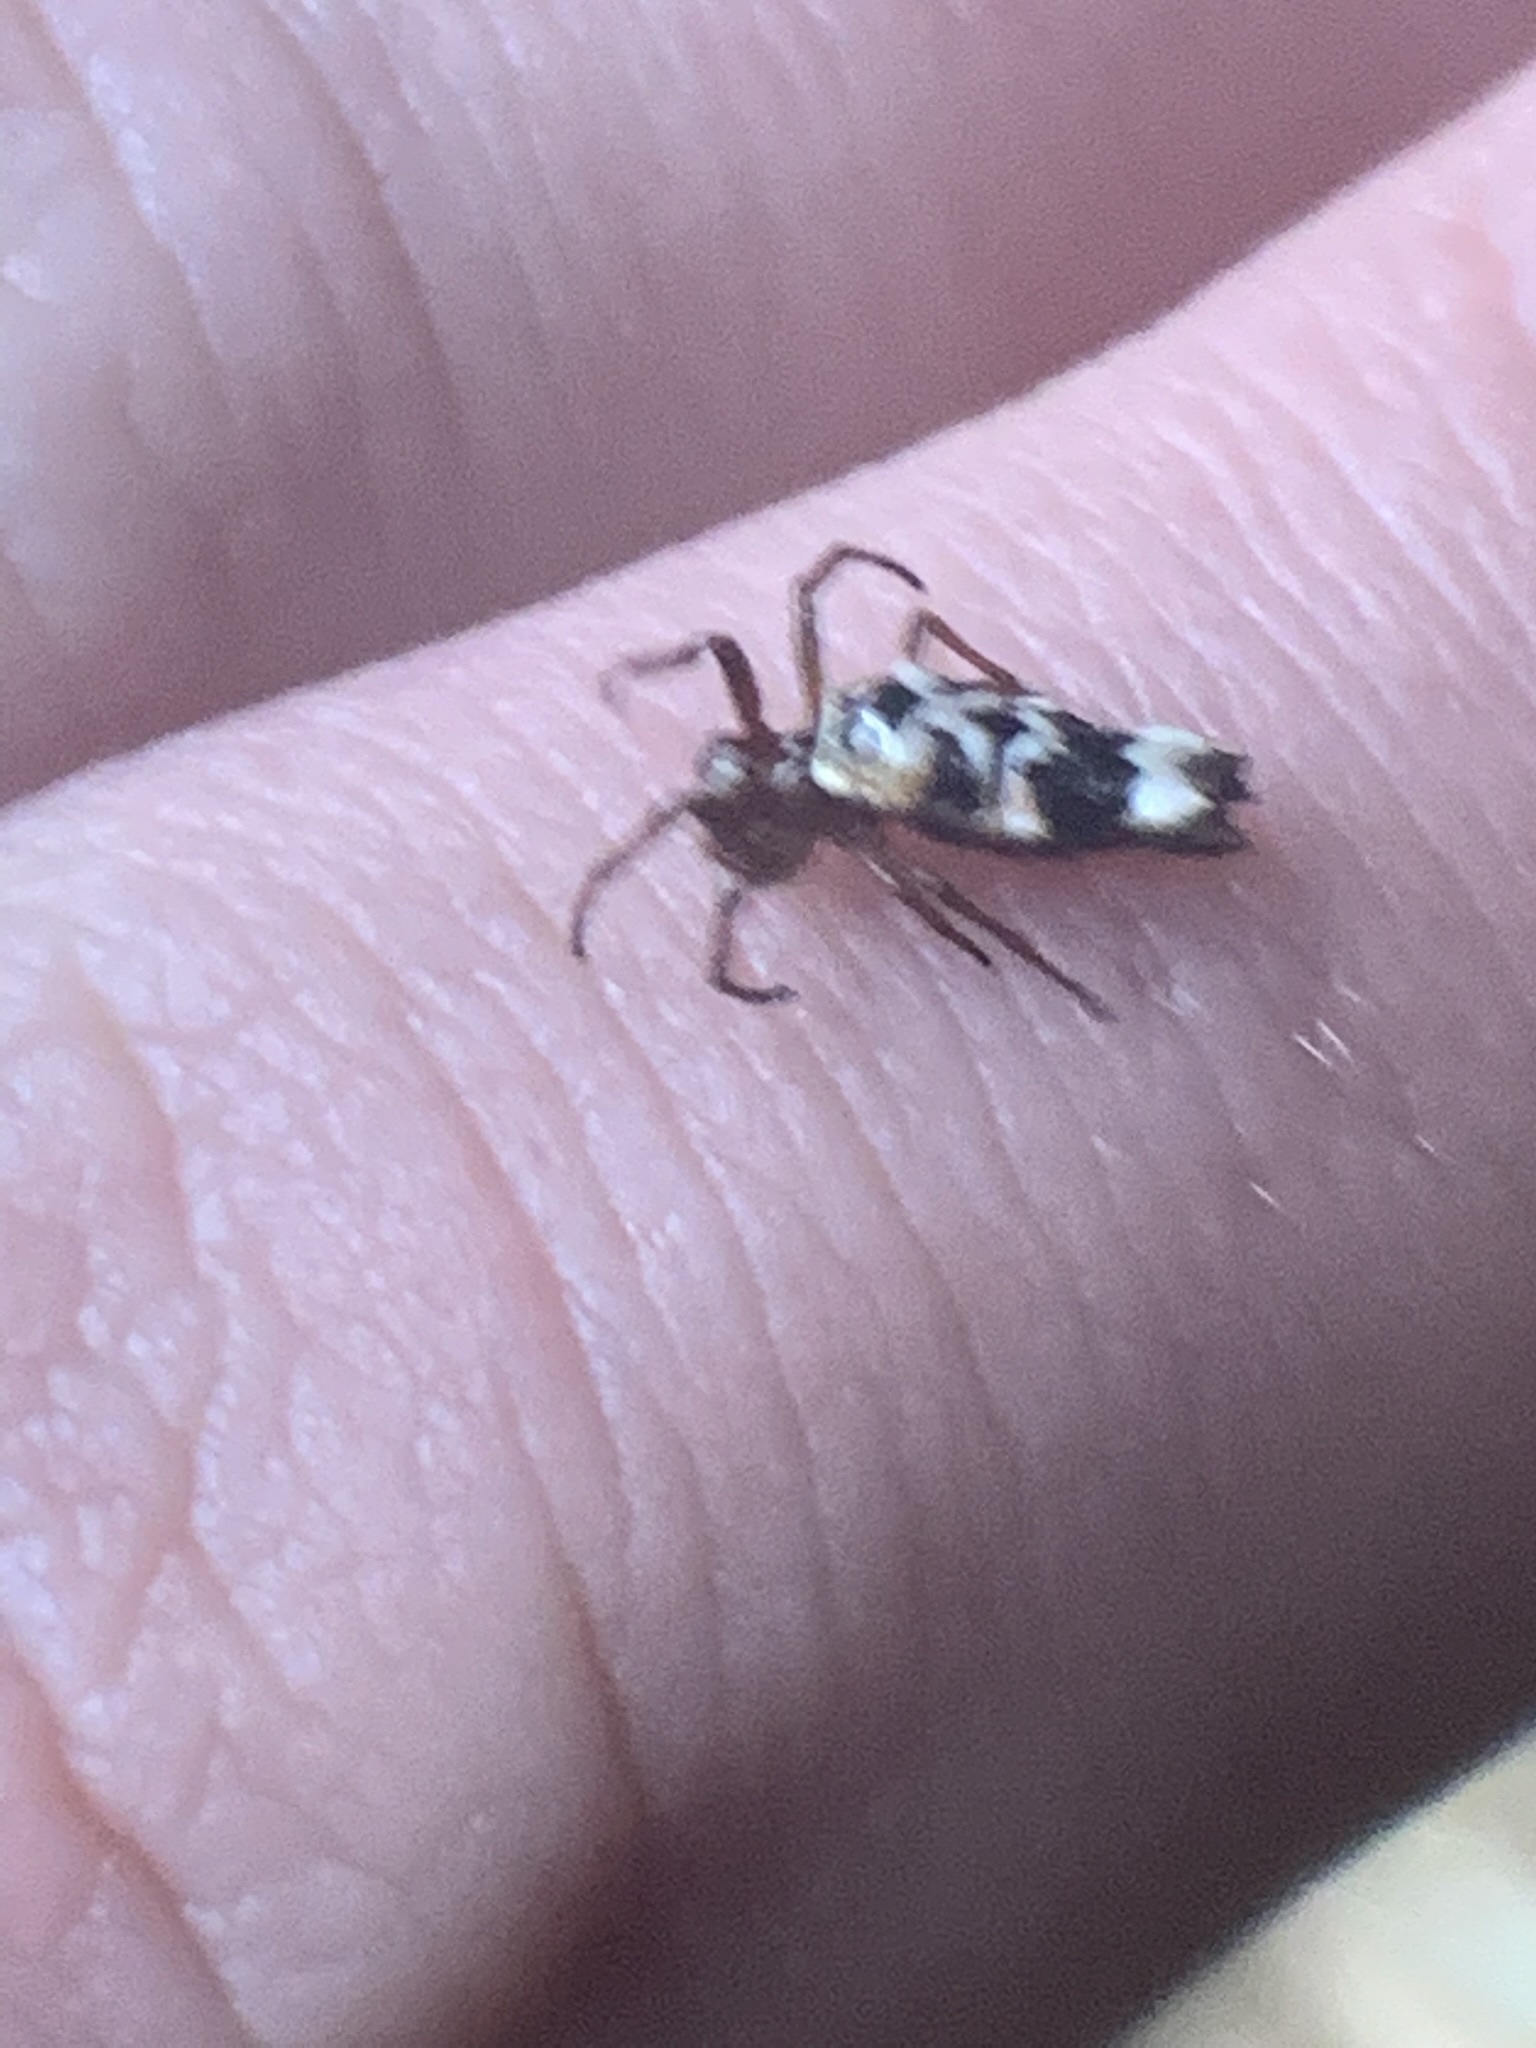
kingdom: Animalia
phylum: Arthropoda
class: Arachnida
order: Araneae
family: Araneidae
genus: Micrathena
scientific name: Micrathena pupa
